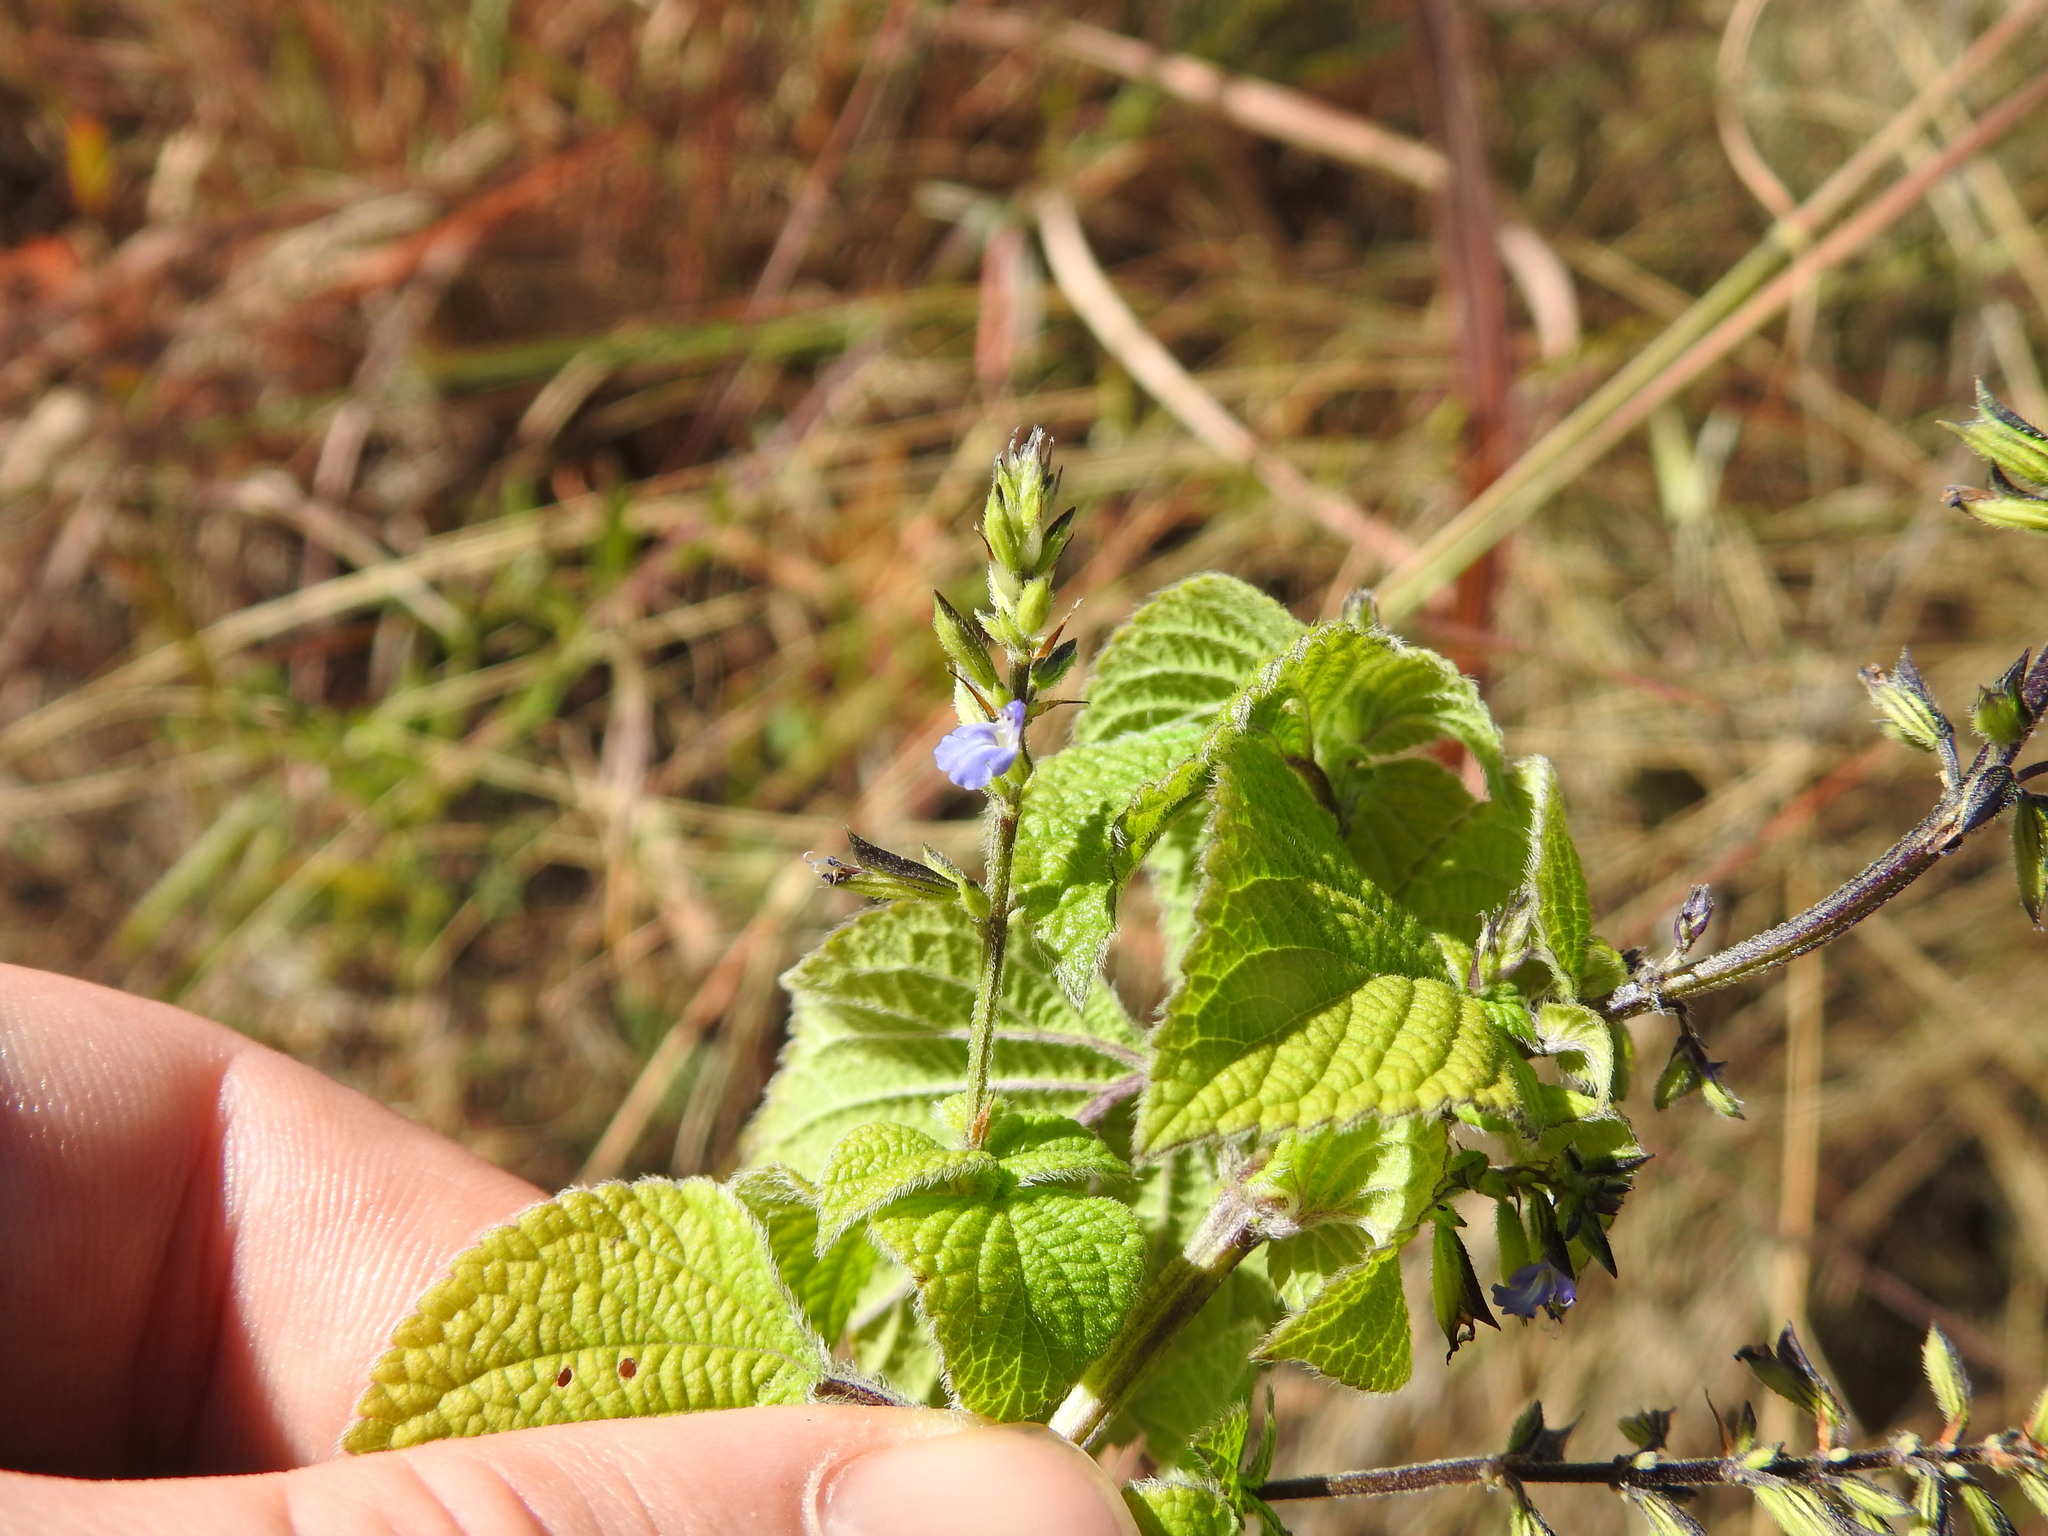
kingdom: Plantae
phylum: Tracheophyta
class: Magnoliopsida
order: Lamiales
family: Lamiaceae
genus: Salvia
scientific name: Salvia tiliifolia
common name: Lindenleaf sage
